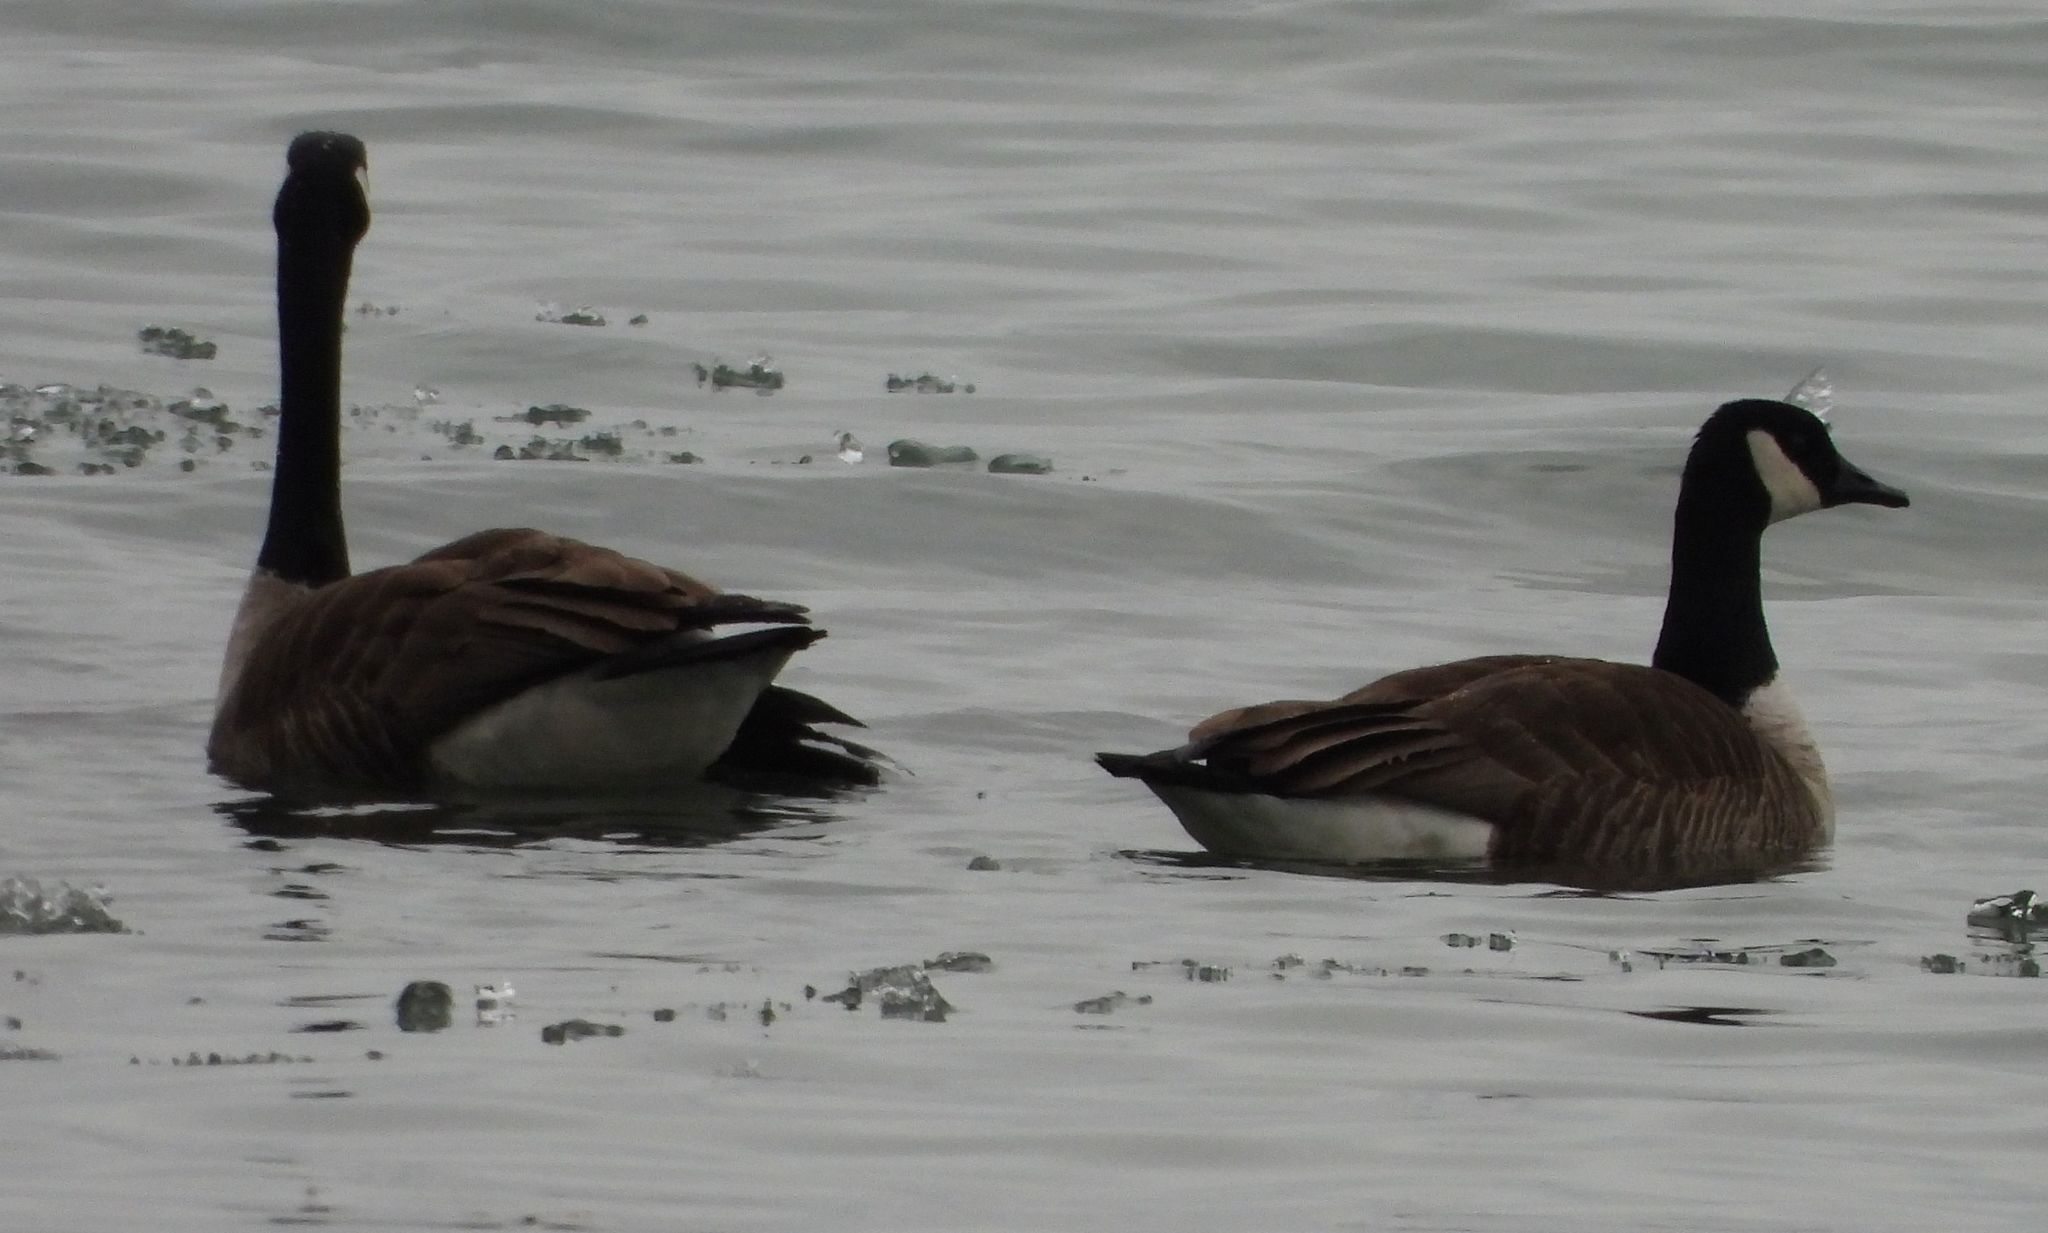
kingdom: Animalia
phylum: Chordata
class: Aves
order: Anseriformes
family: Anatidae
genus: Branta
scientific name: Branta canadensis
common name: Canada goose
